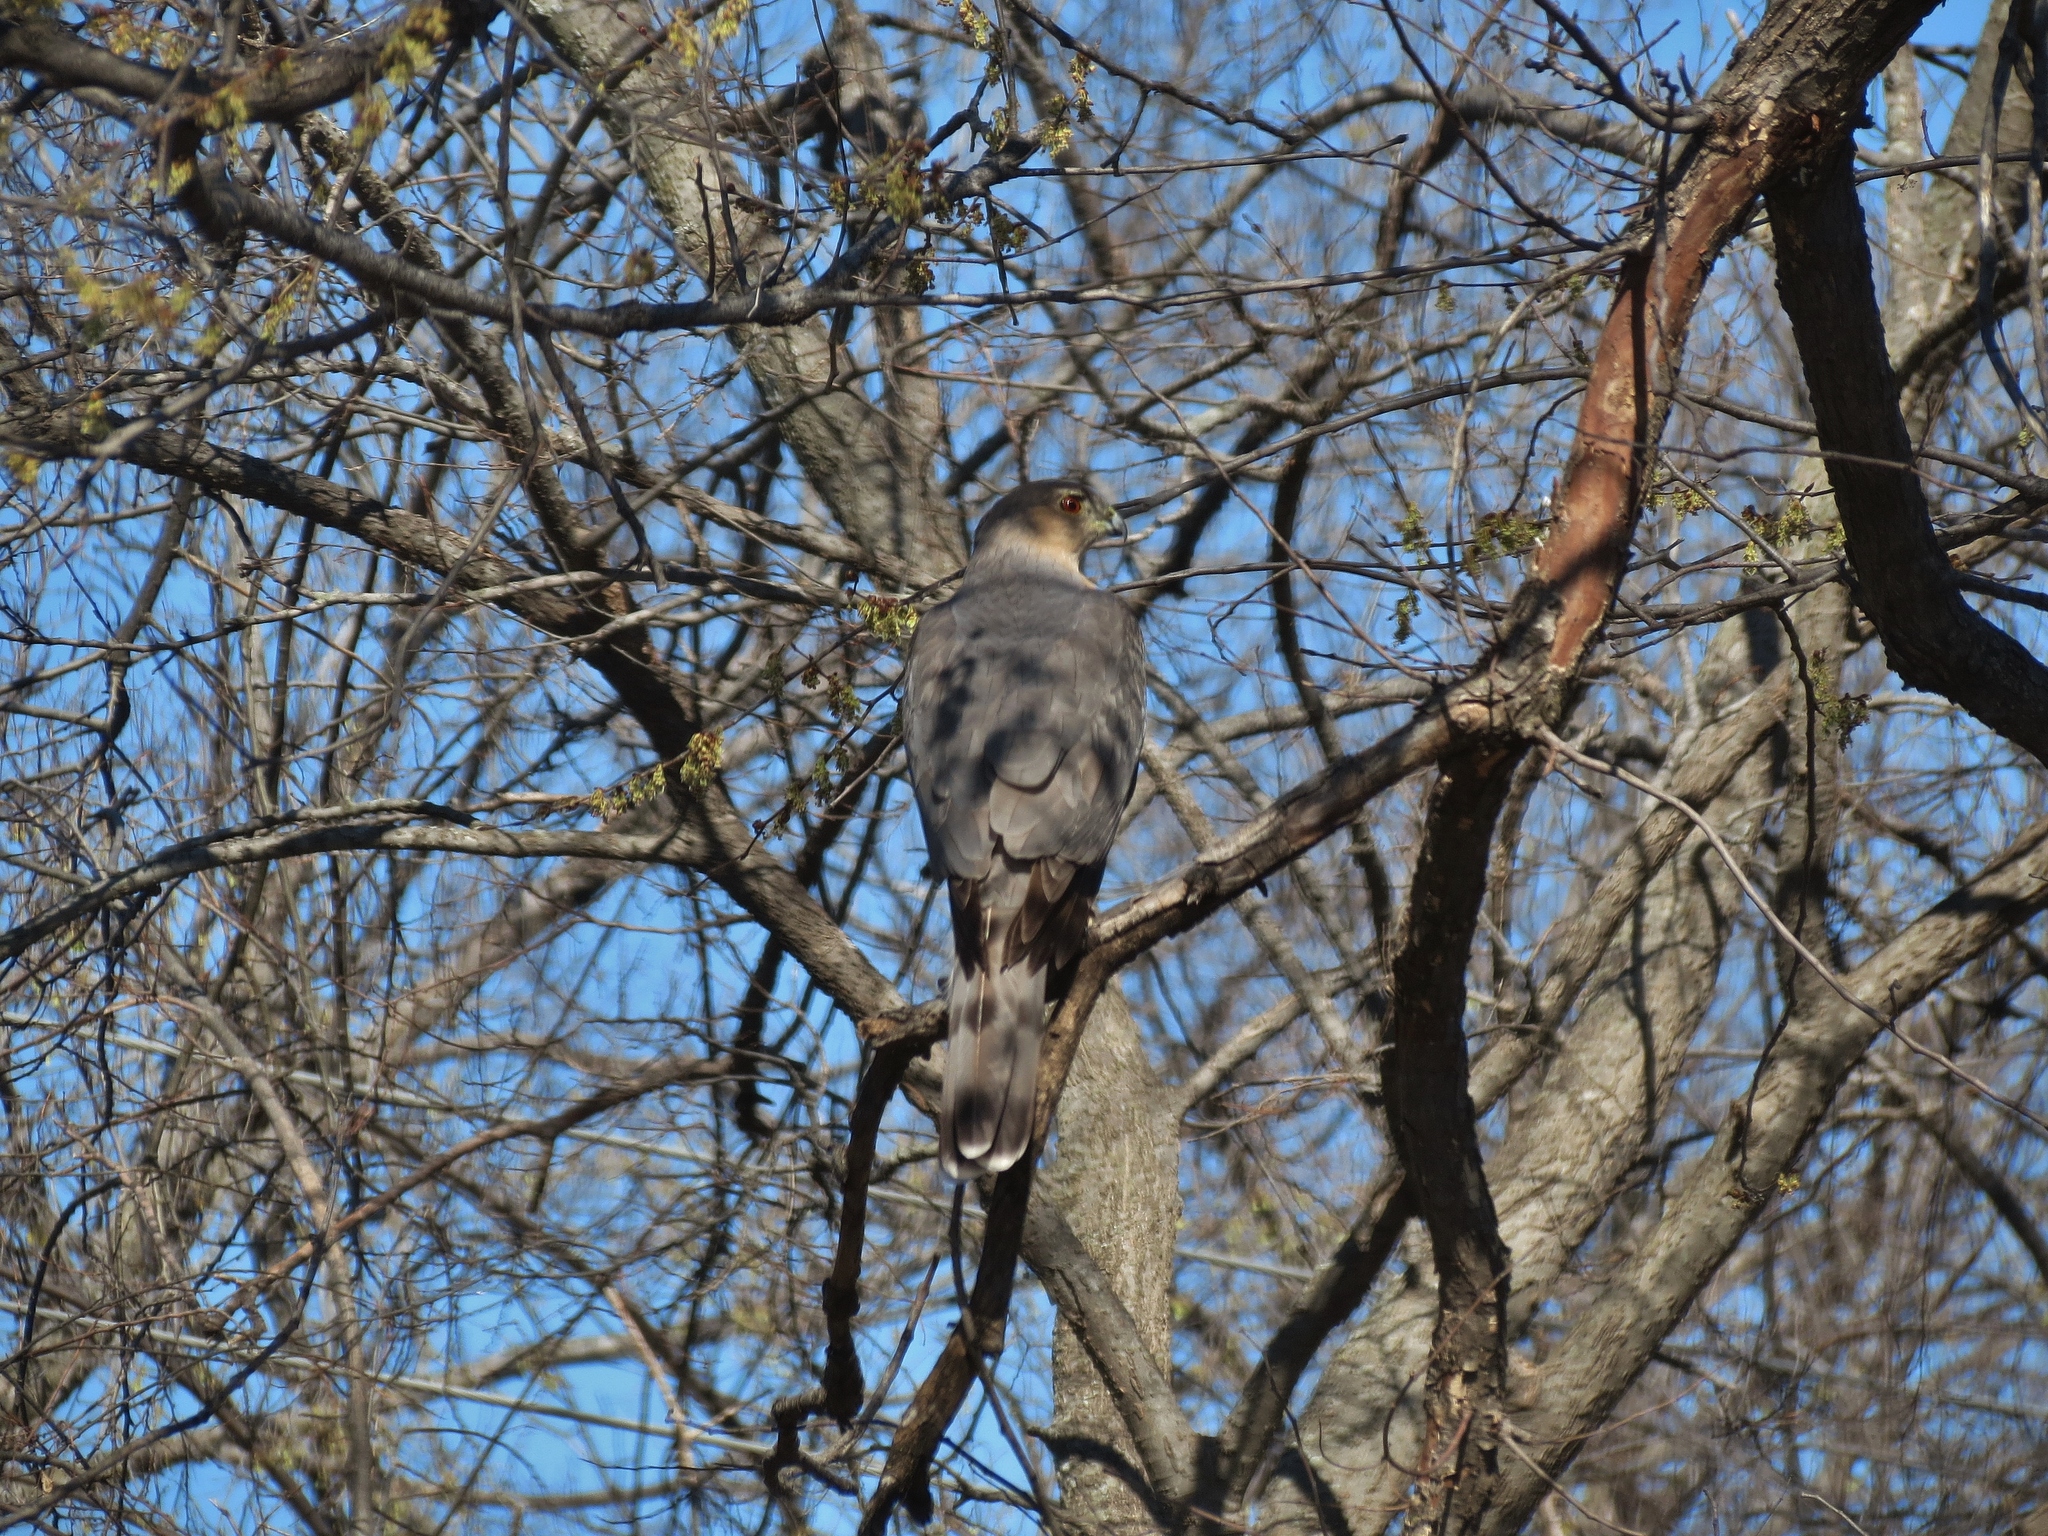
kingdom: Animalia
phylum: Chordata
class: Aves
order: Accipitriformes
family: Accipitridae
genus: Accipiter
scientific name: Accipiter cooperii
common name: Cooper's hawk
